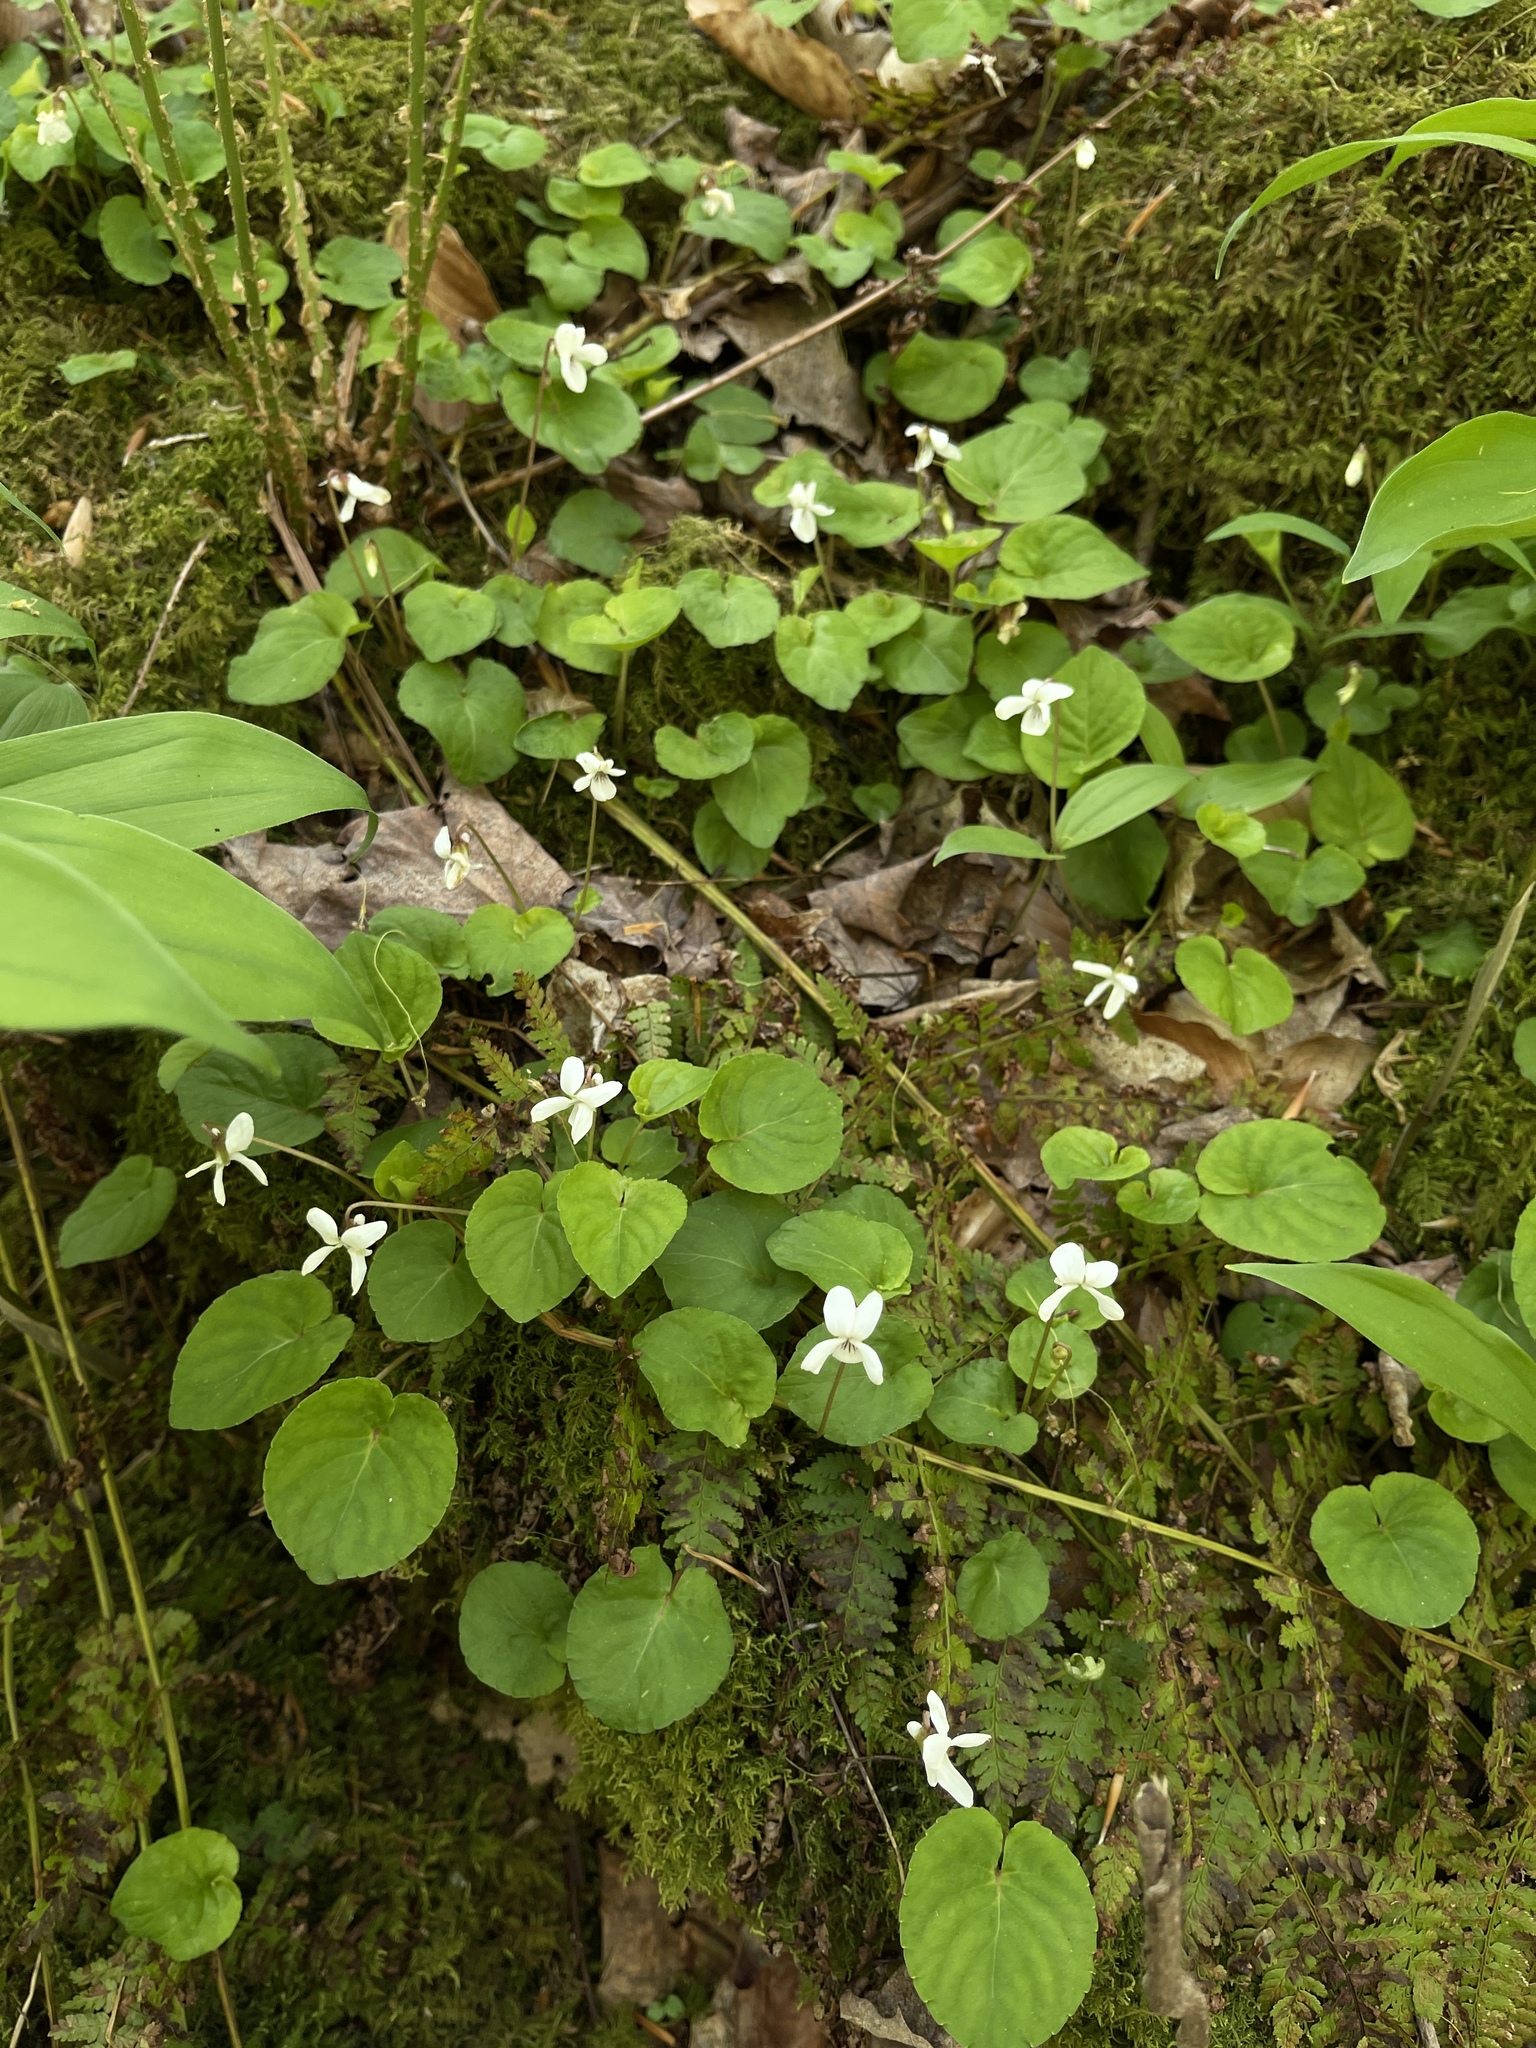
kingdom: Plantae
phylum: Tracheophyta
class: Magnoliopsida
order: Malpighiales
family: Violaceae
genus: Viola
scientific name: Viola blanda
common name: Sweet white violet
